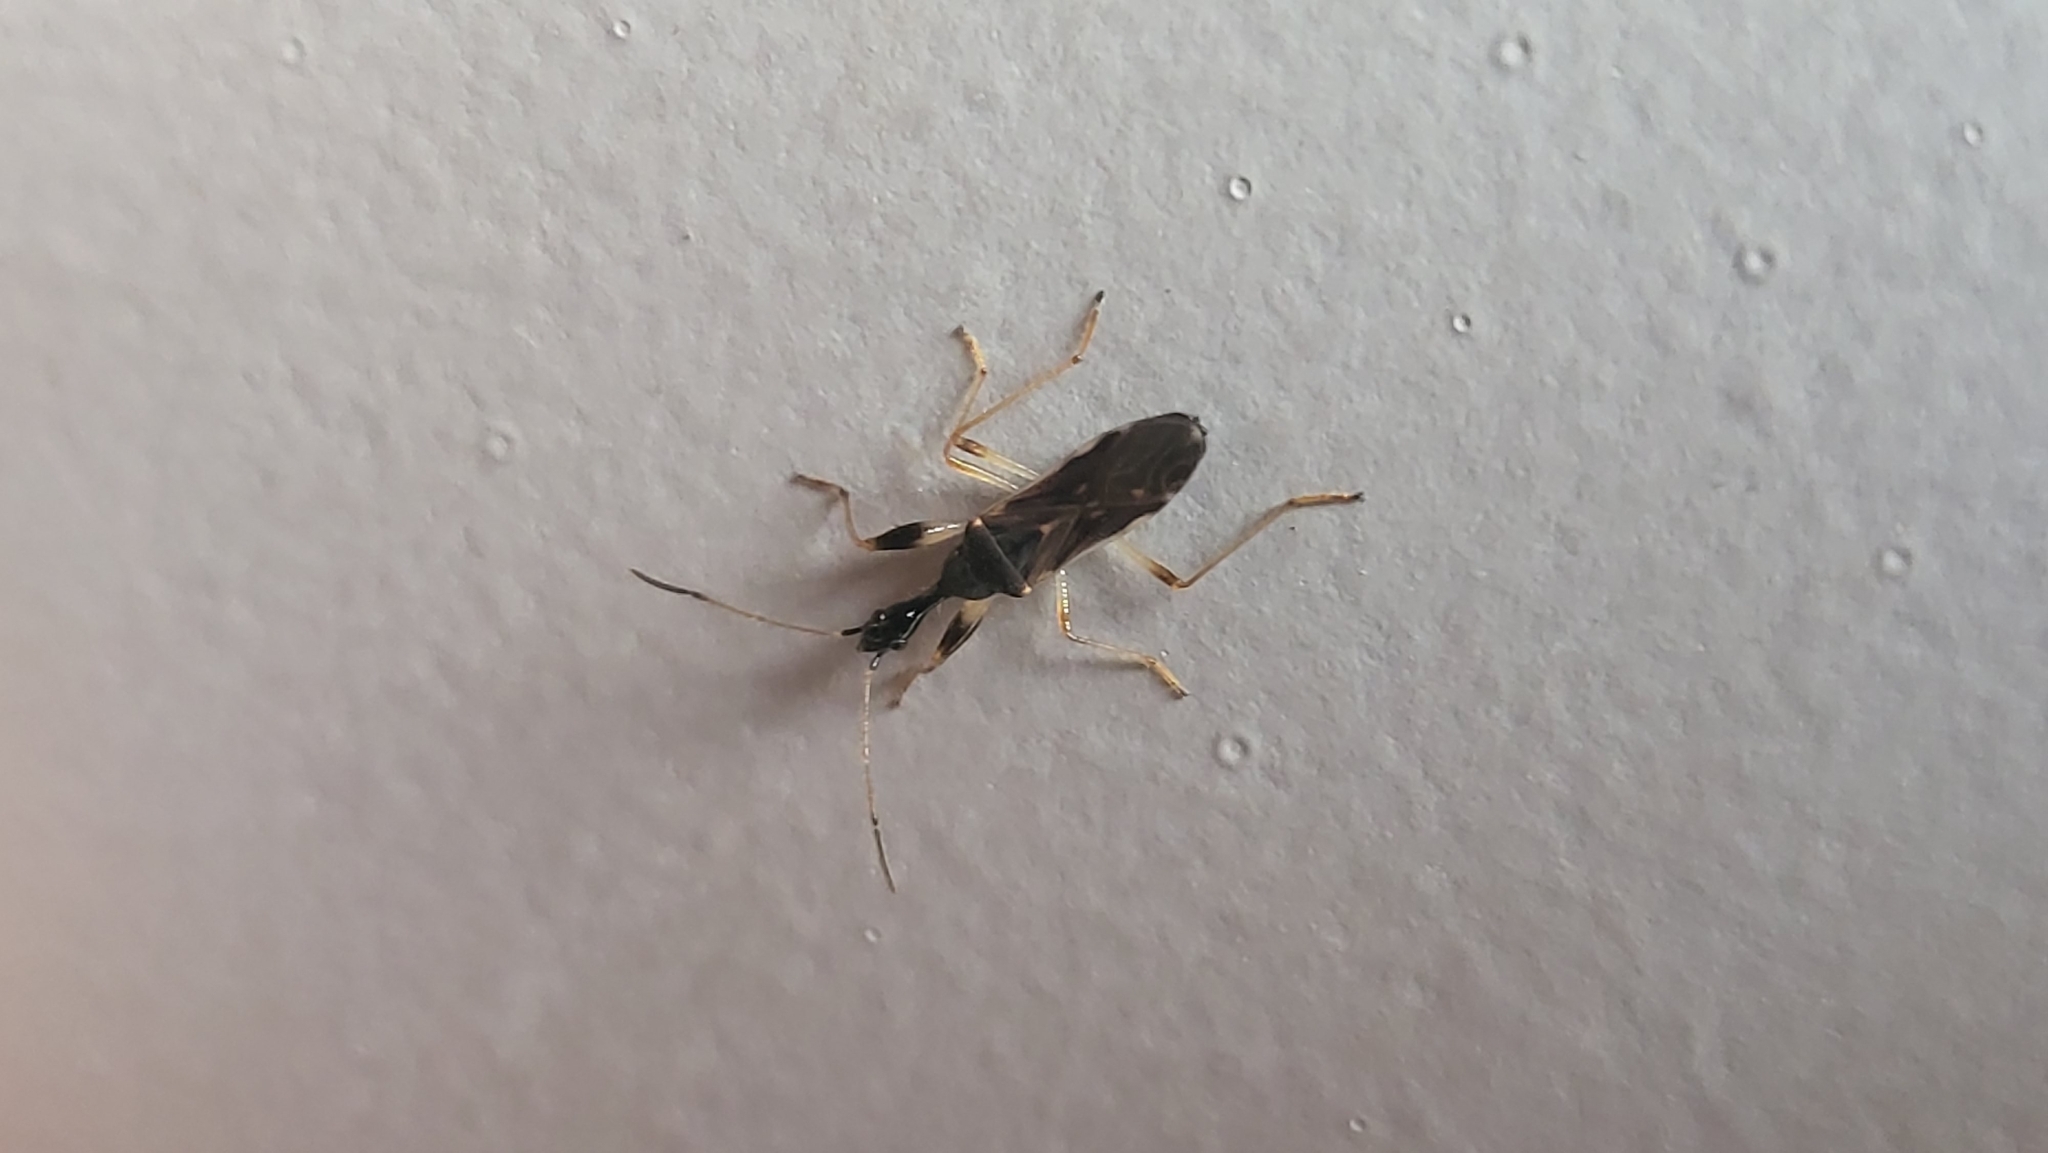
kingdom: Animalia
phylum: Arthropoda
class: Insecta
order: Hemiptera
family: Rhyparochromidae
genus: Myodocha
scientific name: Myodocha serripes
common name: Long-necked seed bug
